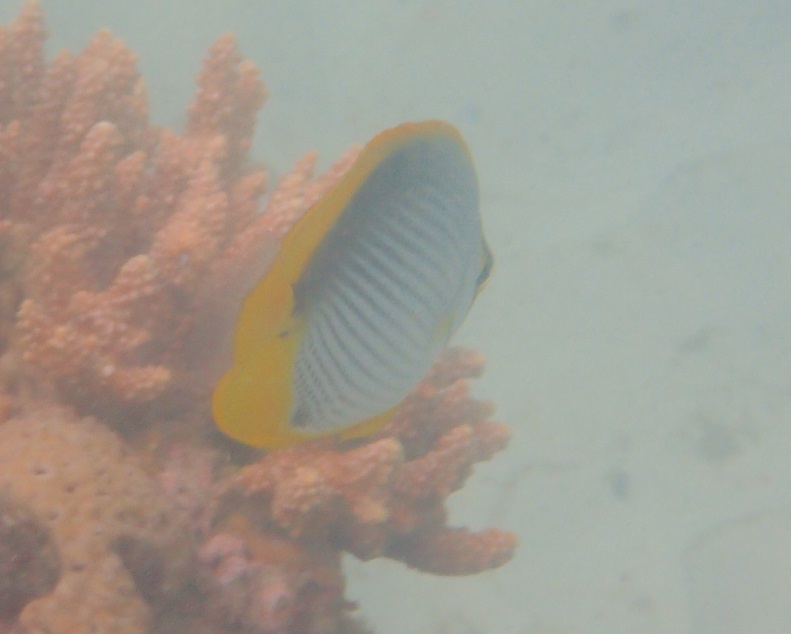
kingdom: Animalia
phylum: Chordata
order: Perciformes
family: Chaetodontidae
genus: Chaetodon
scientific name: Chaetodon melannotus
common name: Blackback butterflyfish
